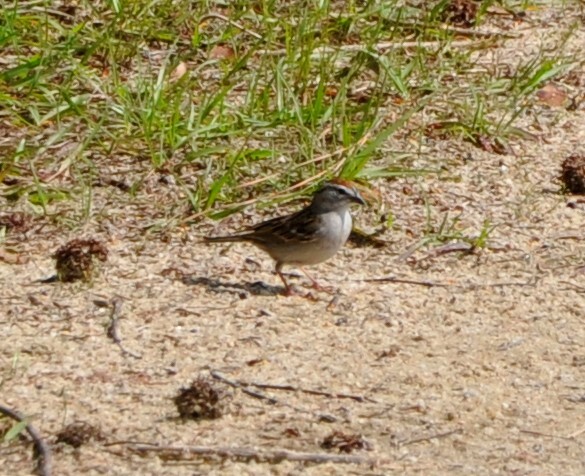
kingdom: Animalia
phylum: Chordata
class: Aves
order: Passeriformes
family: Passerellidae
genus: Spizella
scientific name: Spizella passerina
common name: Chipping sparrow
